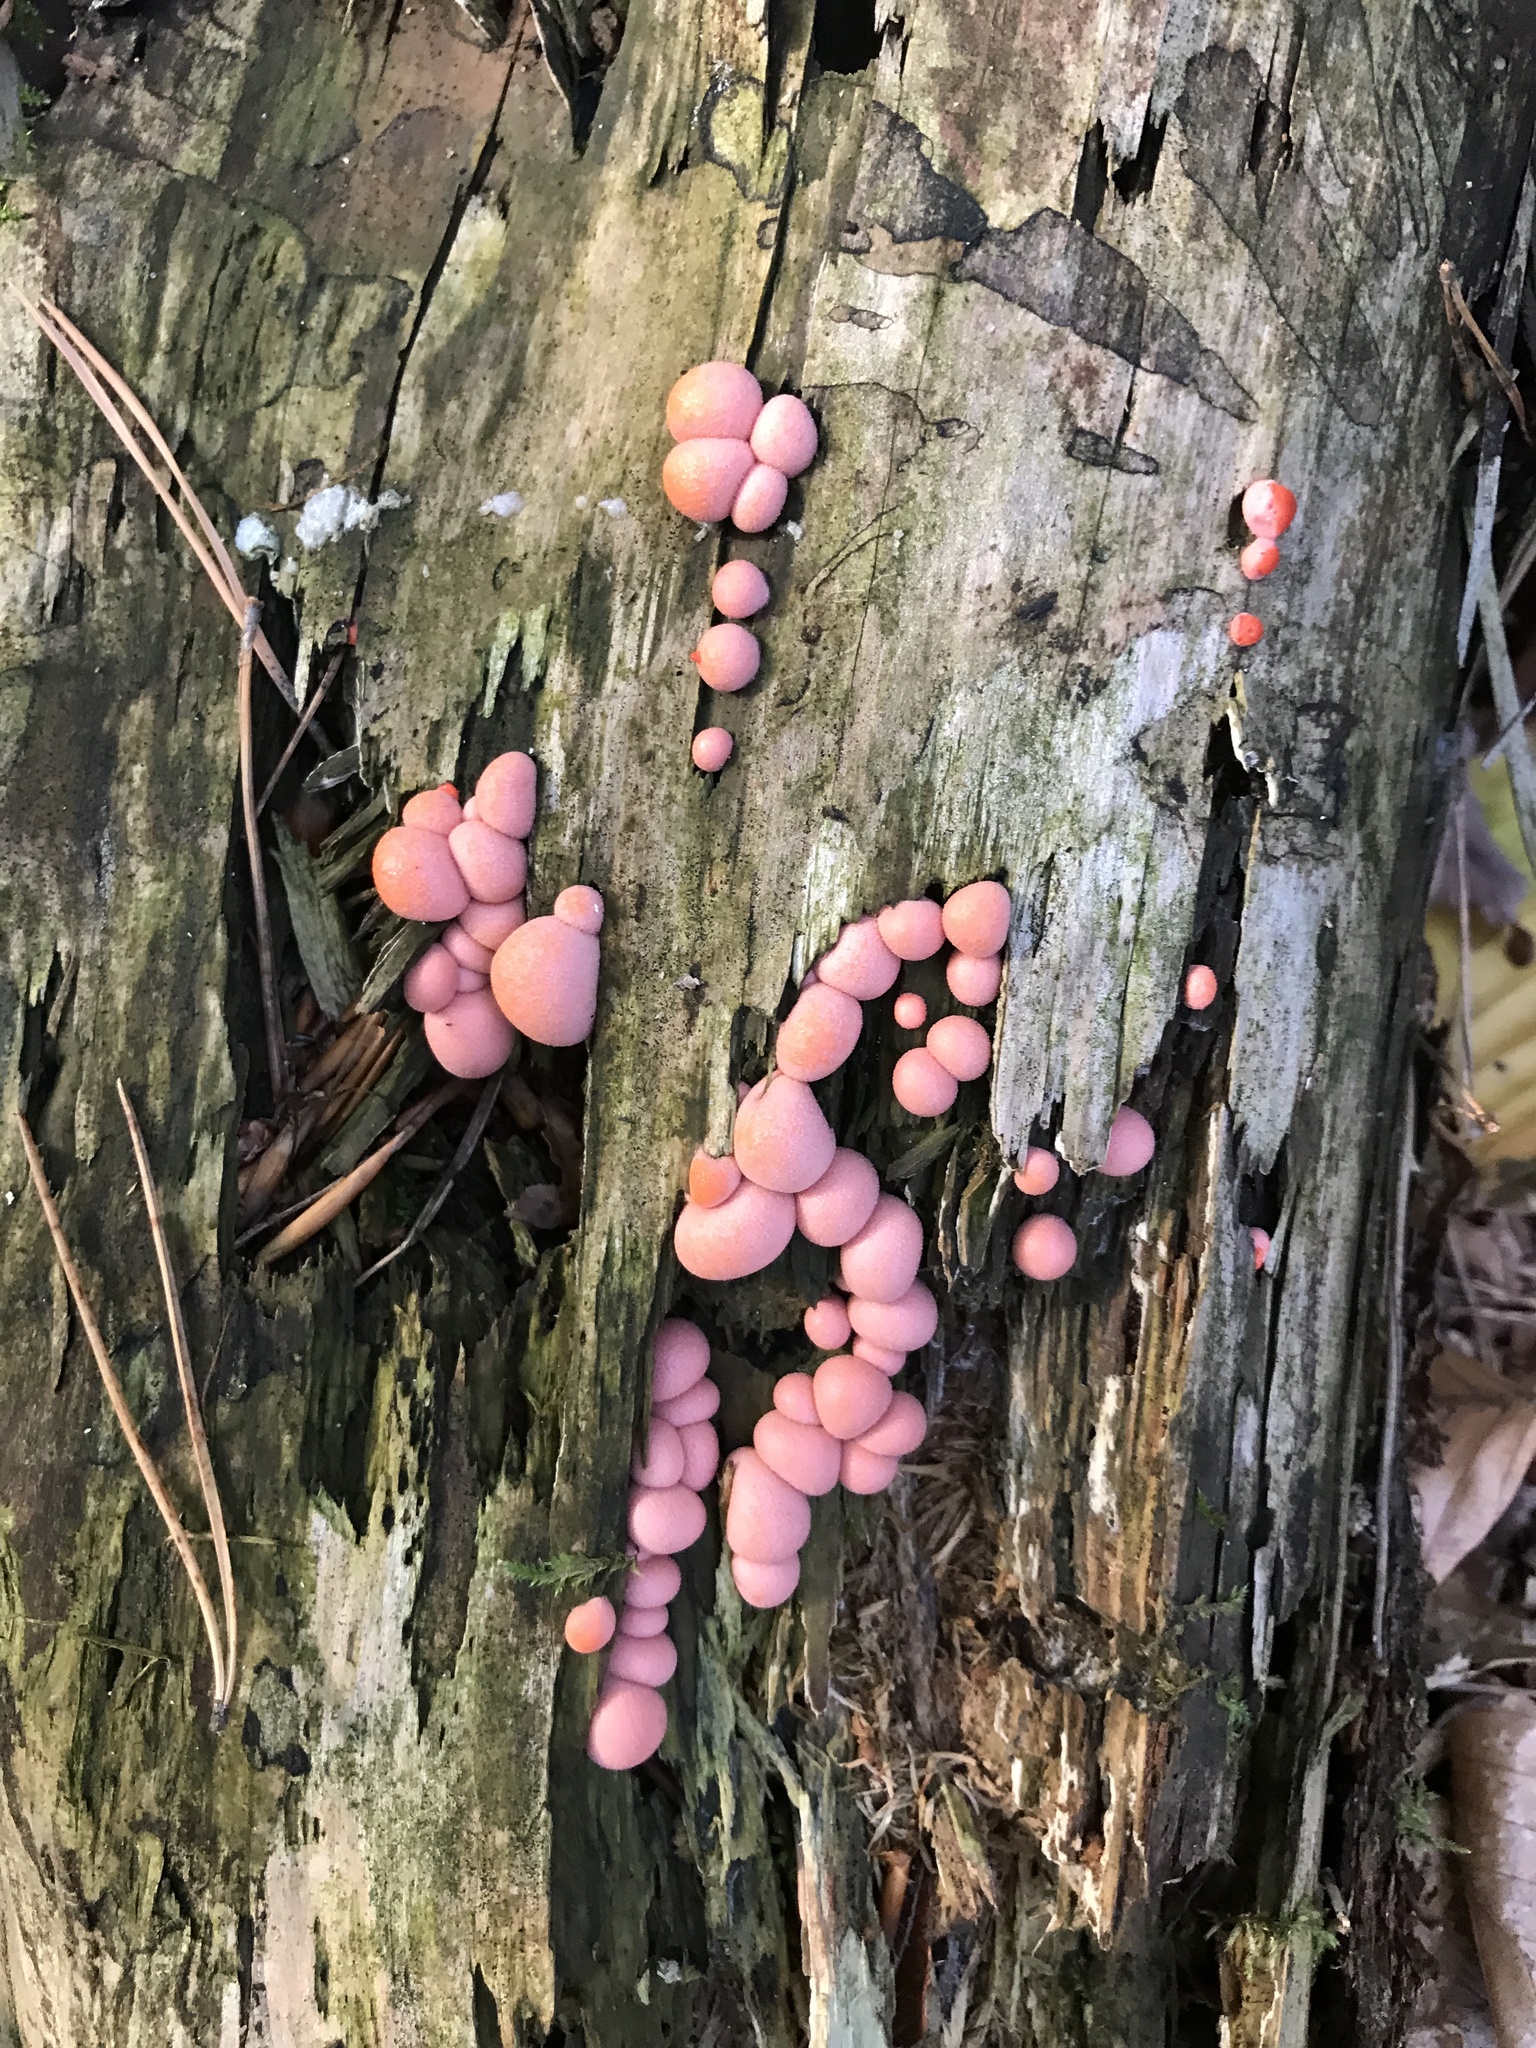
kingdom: Protozoa
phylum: Mycetozoa
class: Myxomycetes
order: Cribrariales
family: Tubiferaceae
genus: Lycogala
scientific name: Lycogala epidendrum
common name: Wolf's milk
